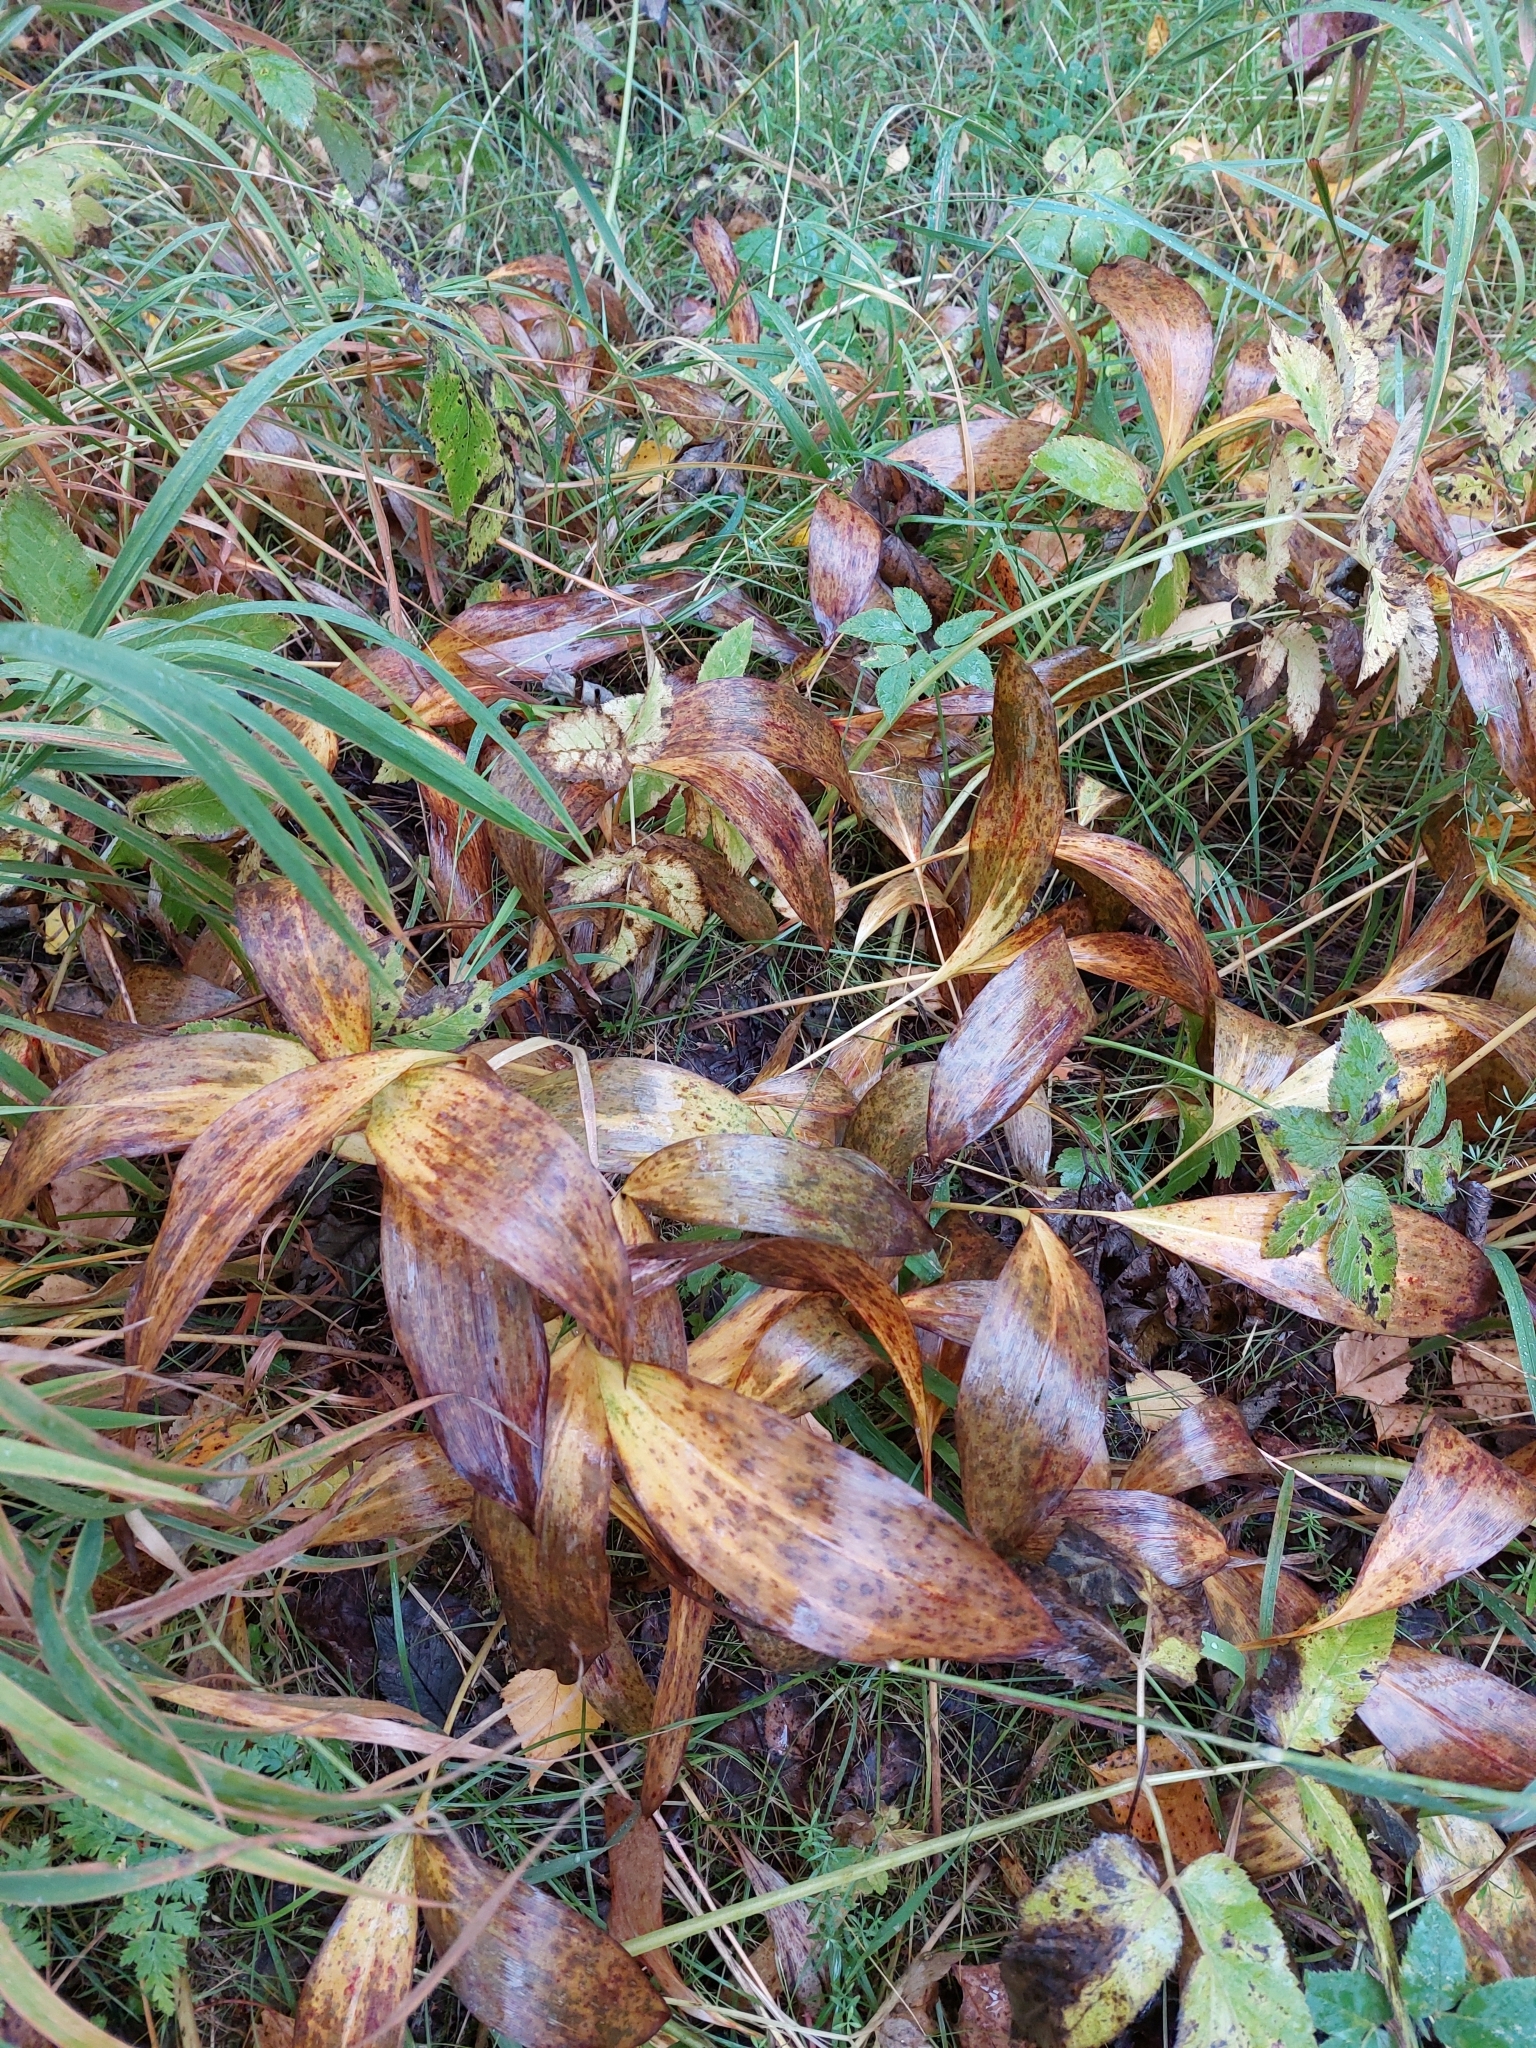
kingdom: Plantae
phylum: Tracheophyta
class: Liliopsida
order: Asparagales
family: Asparagaceae
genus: Convallaria
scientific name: Convallaria majalis
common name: Lily-of-the-valley
